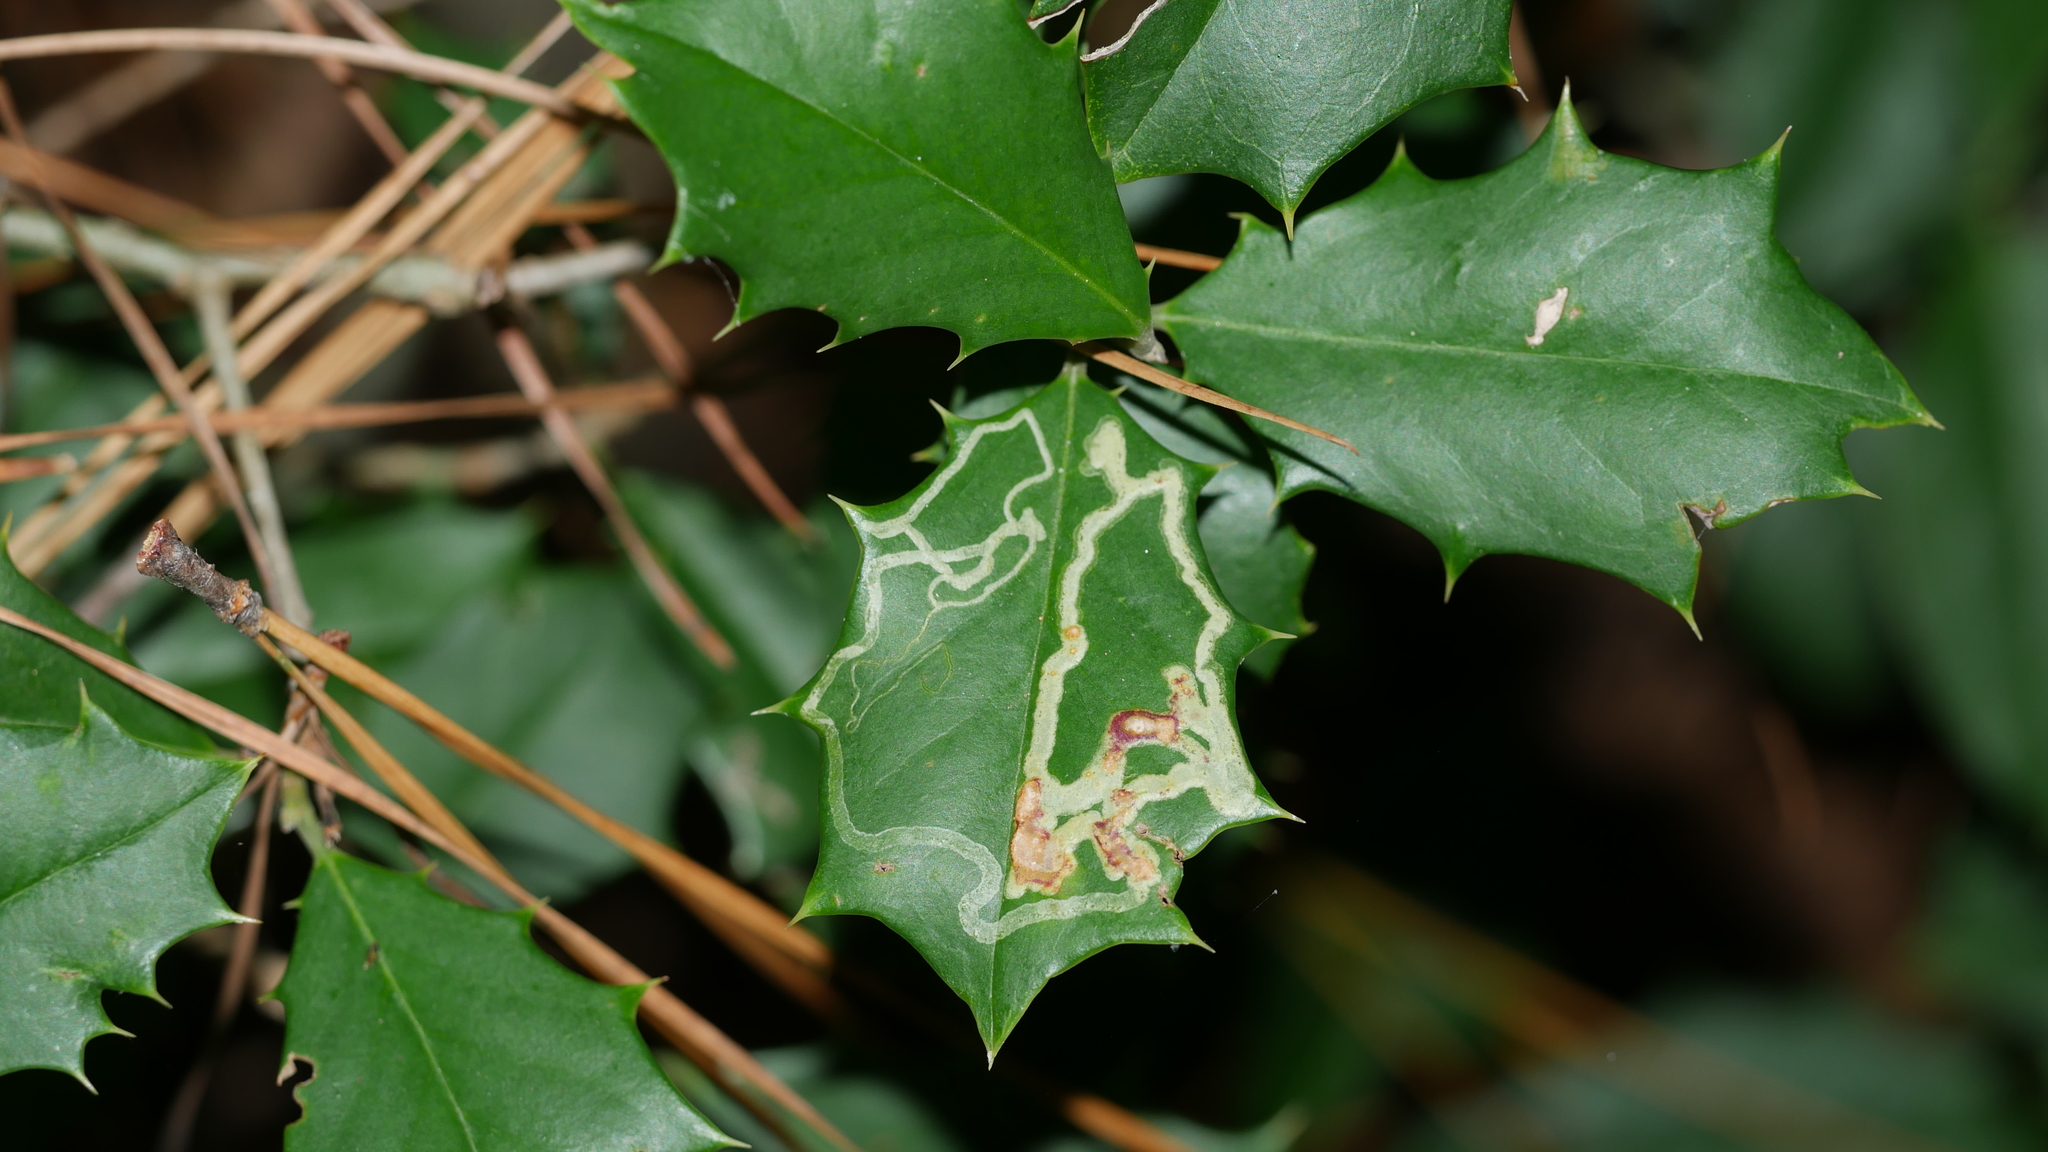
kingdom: Animalia
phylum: Arthropoda
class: Insecta
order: Diptera
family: Agromyzidae
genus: Phytomyza
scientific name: Phytomyza opacae
